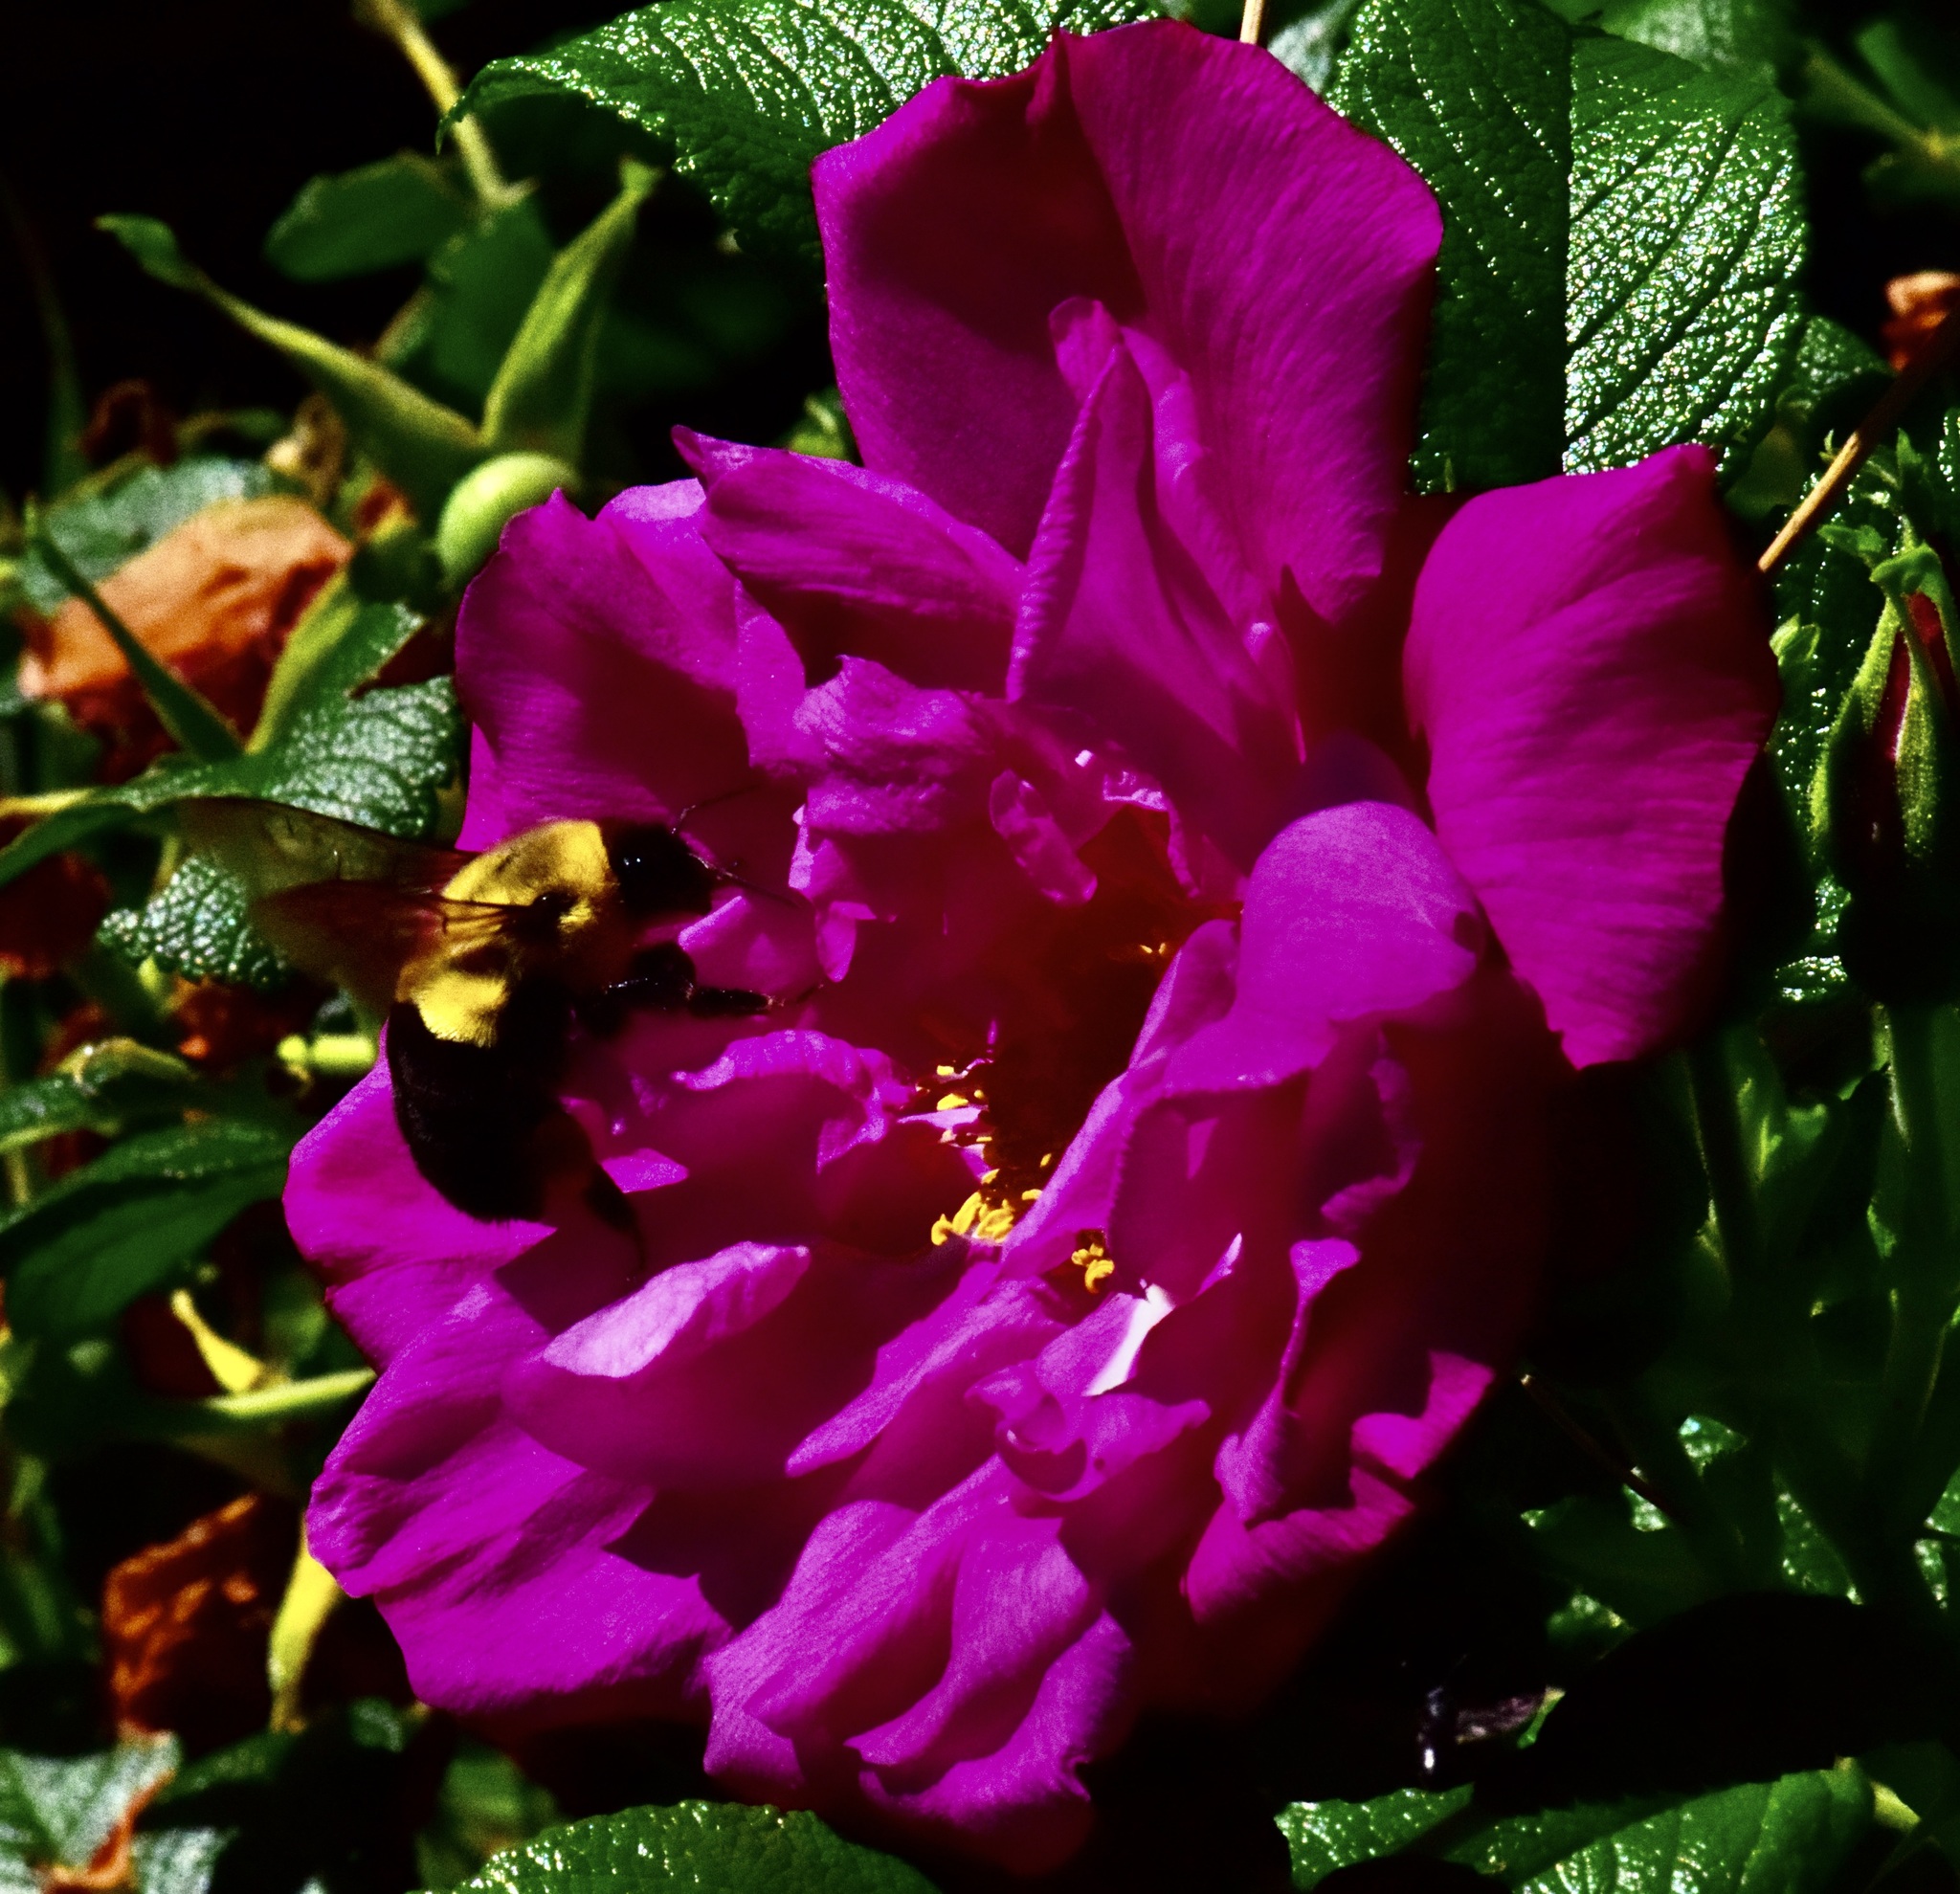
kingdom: Animalia
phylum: Arthropoda
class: Insecta
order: Hymenoptera
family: Apidae
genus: Bombus
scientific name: Bombus impatiens
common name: Common eastern bumble bee
